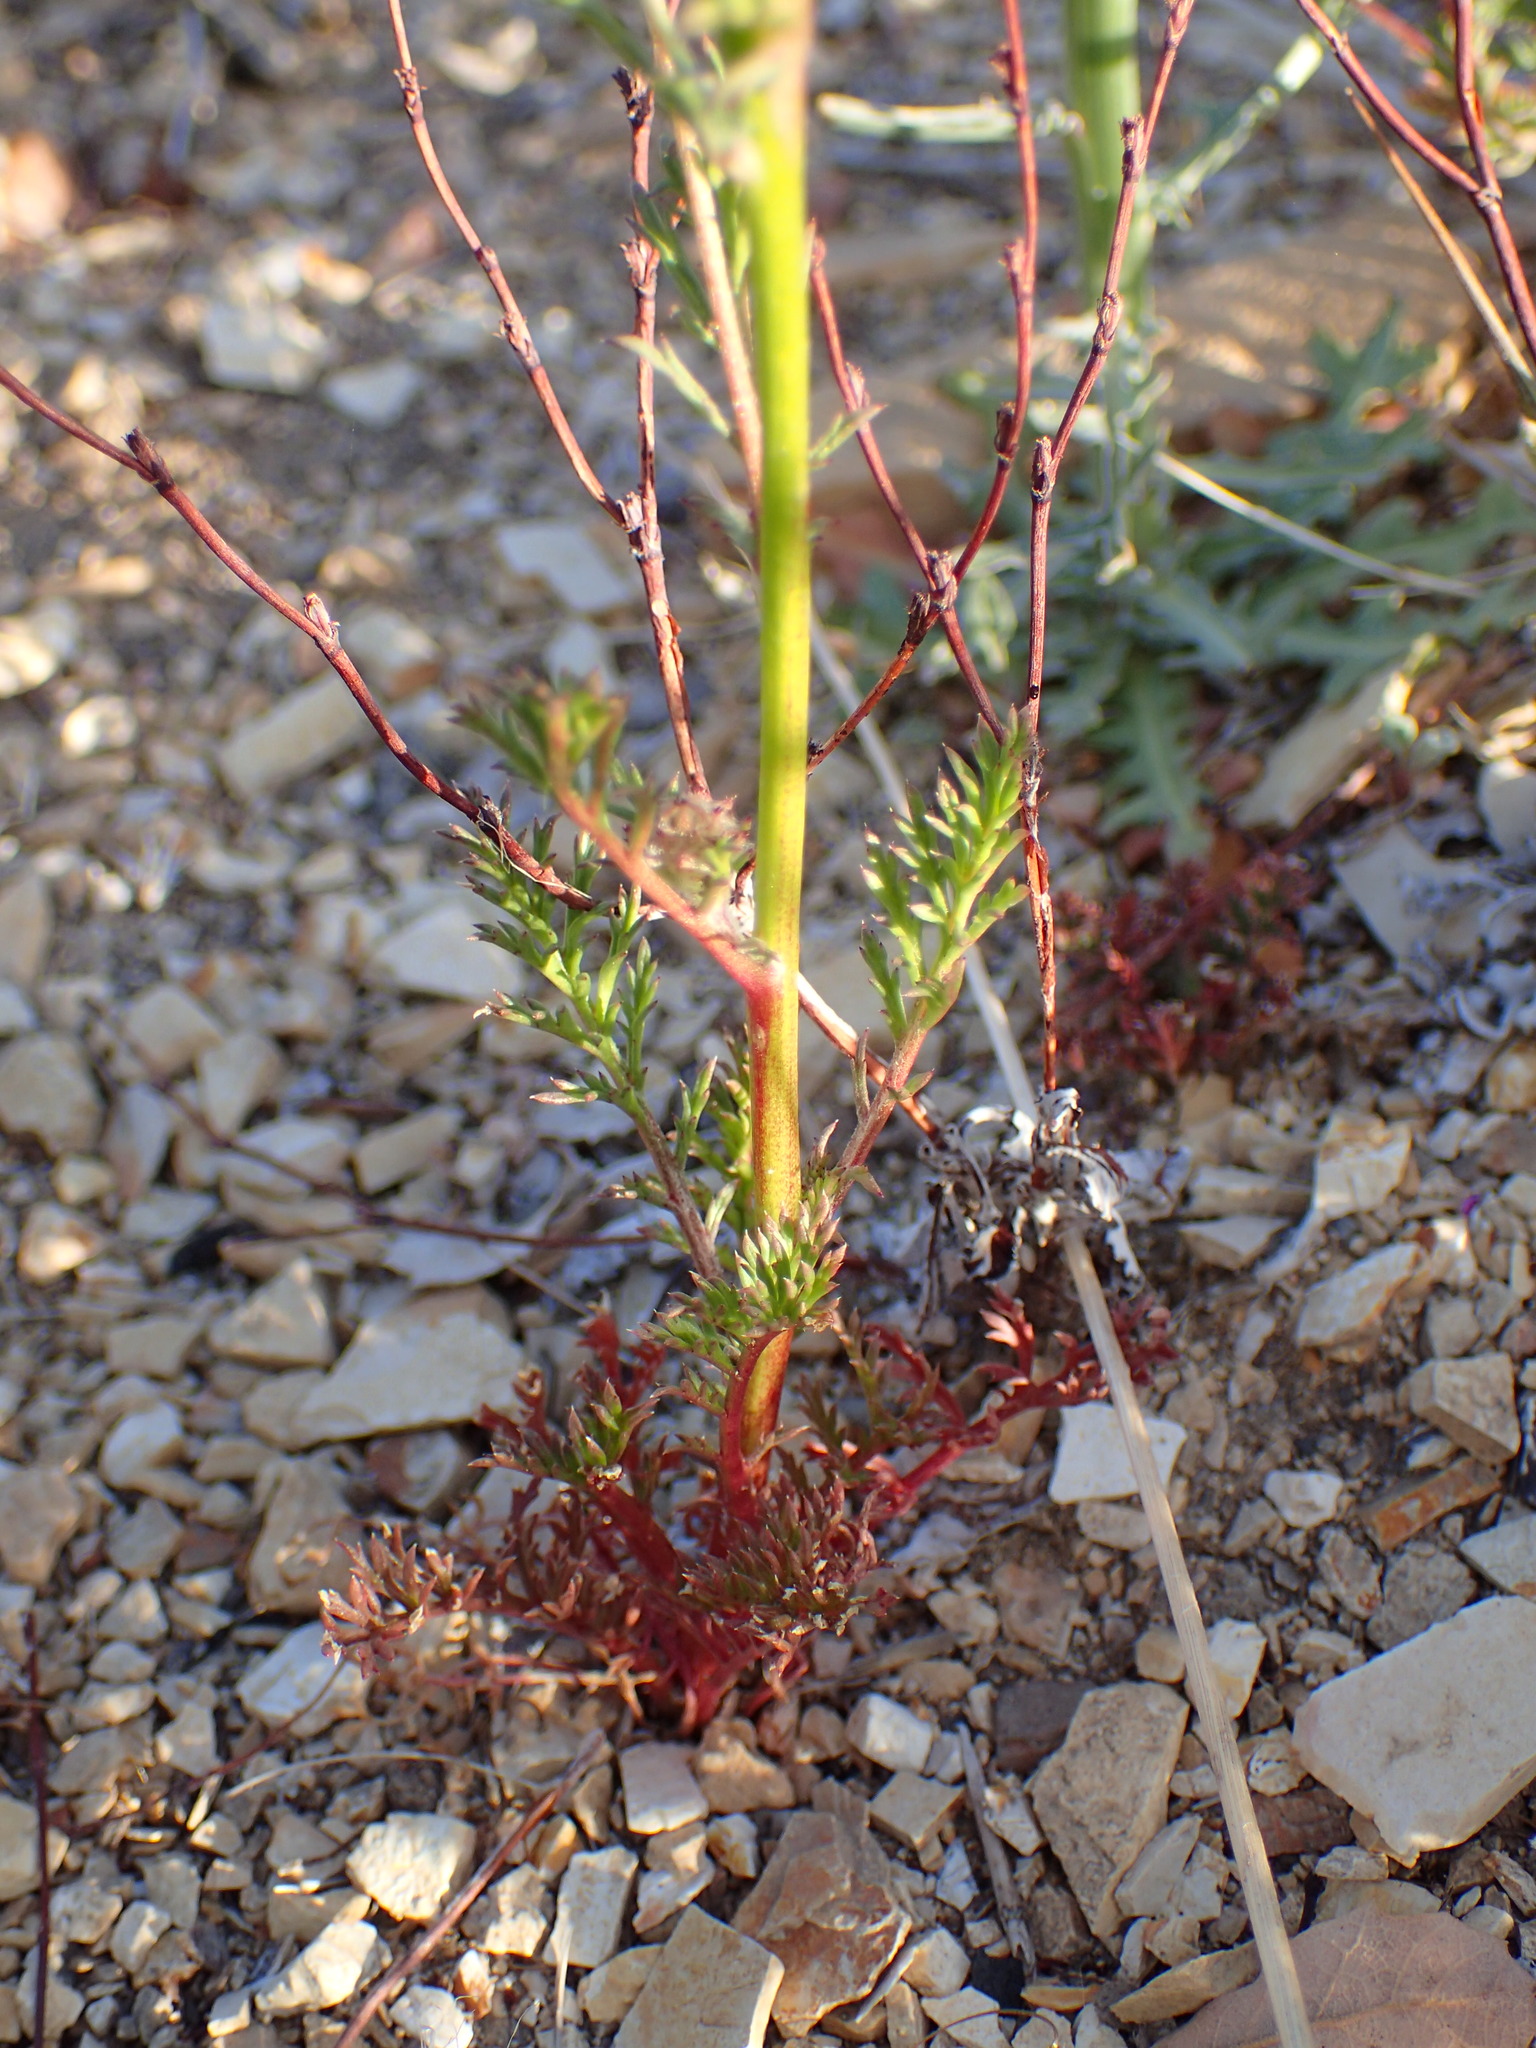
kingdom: Plantae
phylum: Tracheophyta
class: Magnoliopsida
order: Ericales
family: Polemoniaceae
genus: Gilia
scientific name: Gilia capitata
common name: Bluehead gilia
